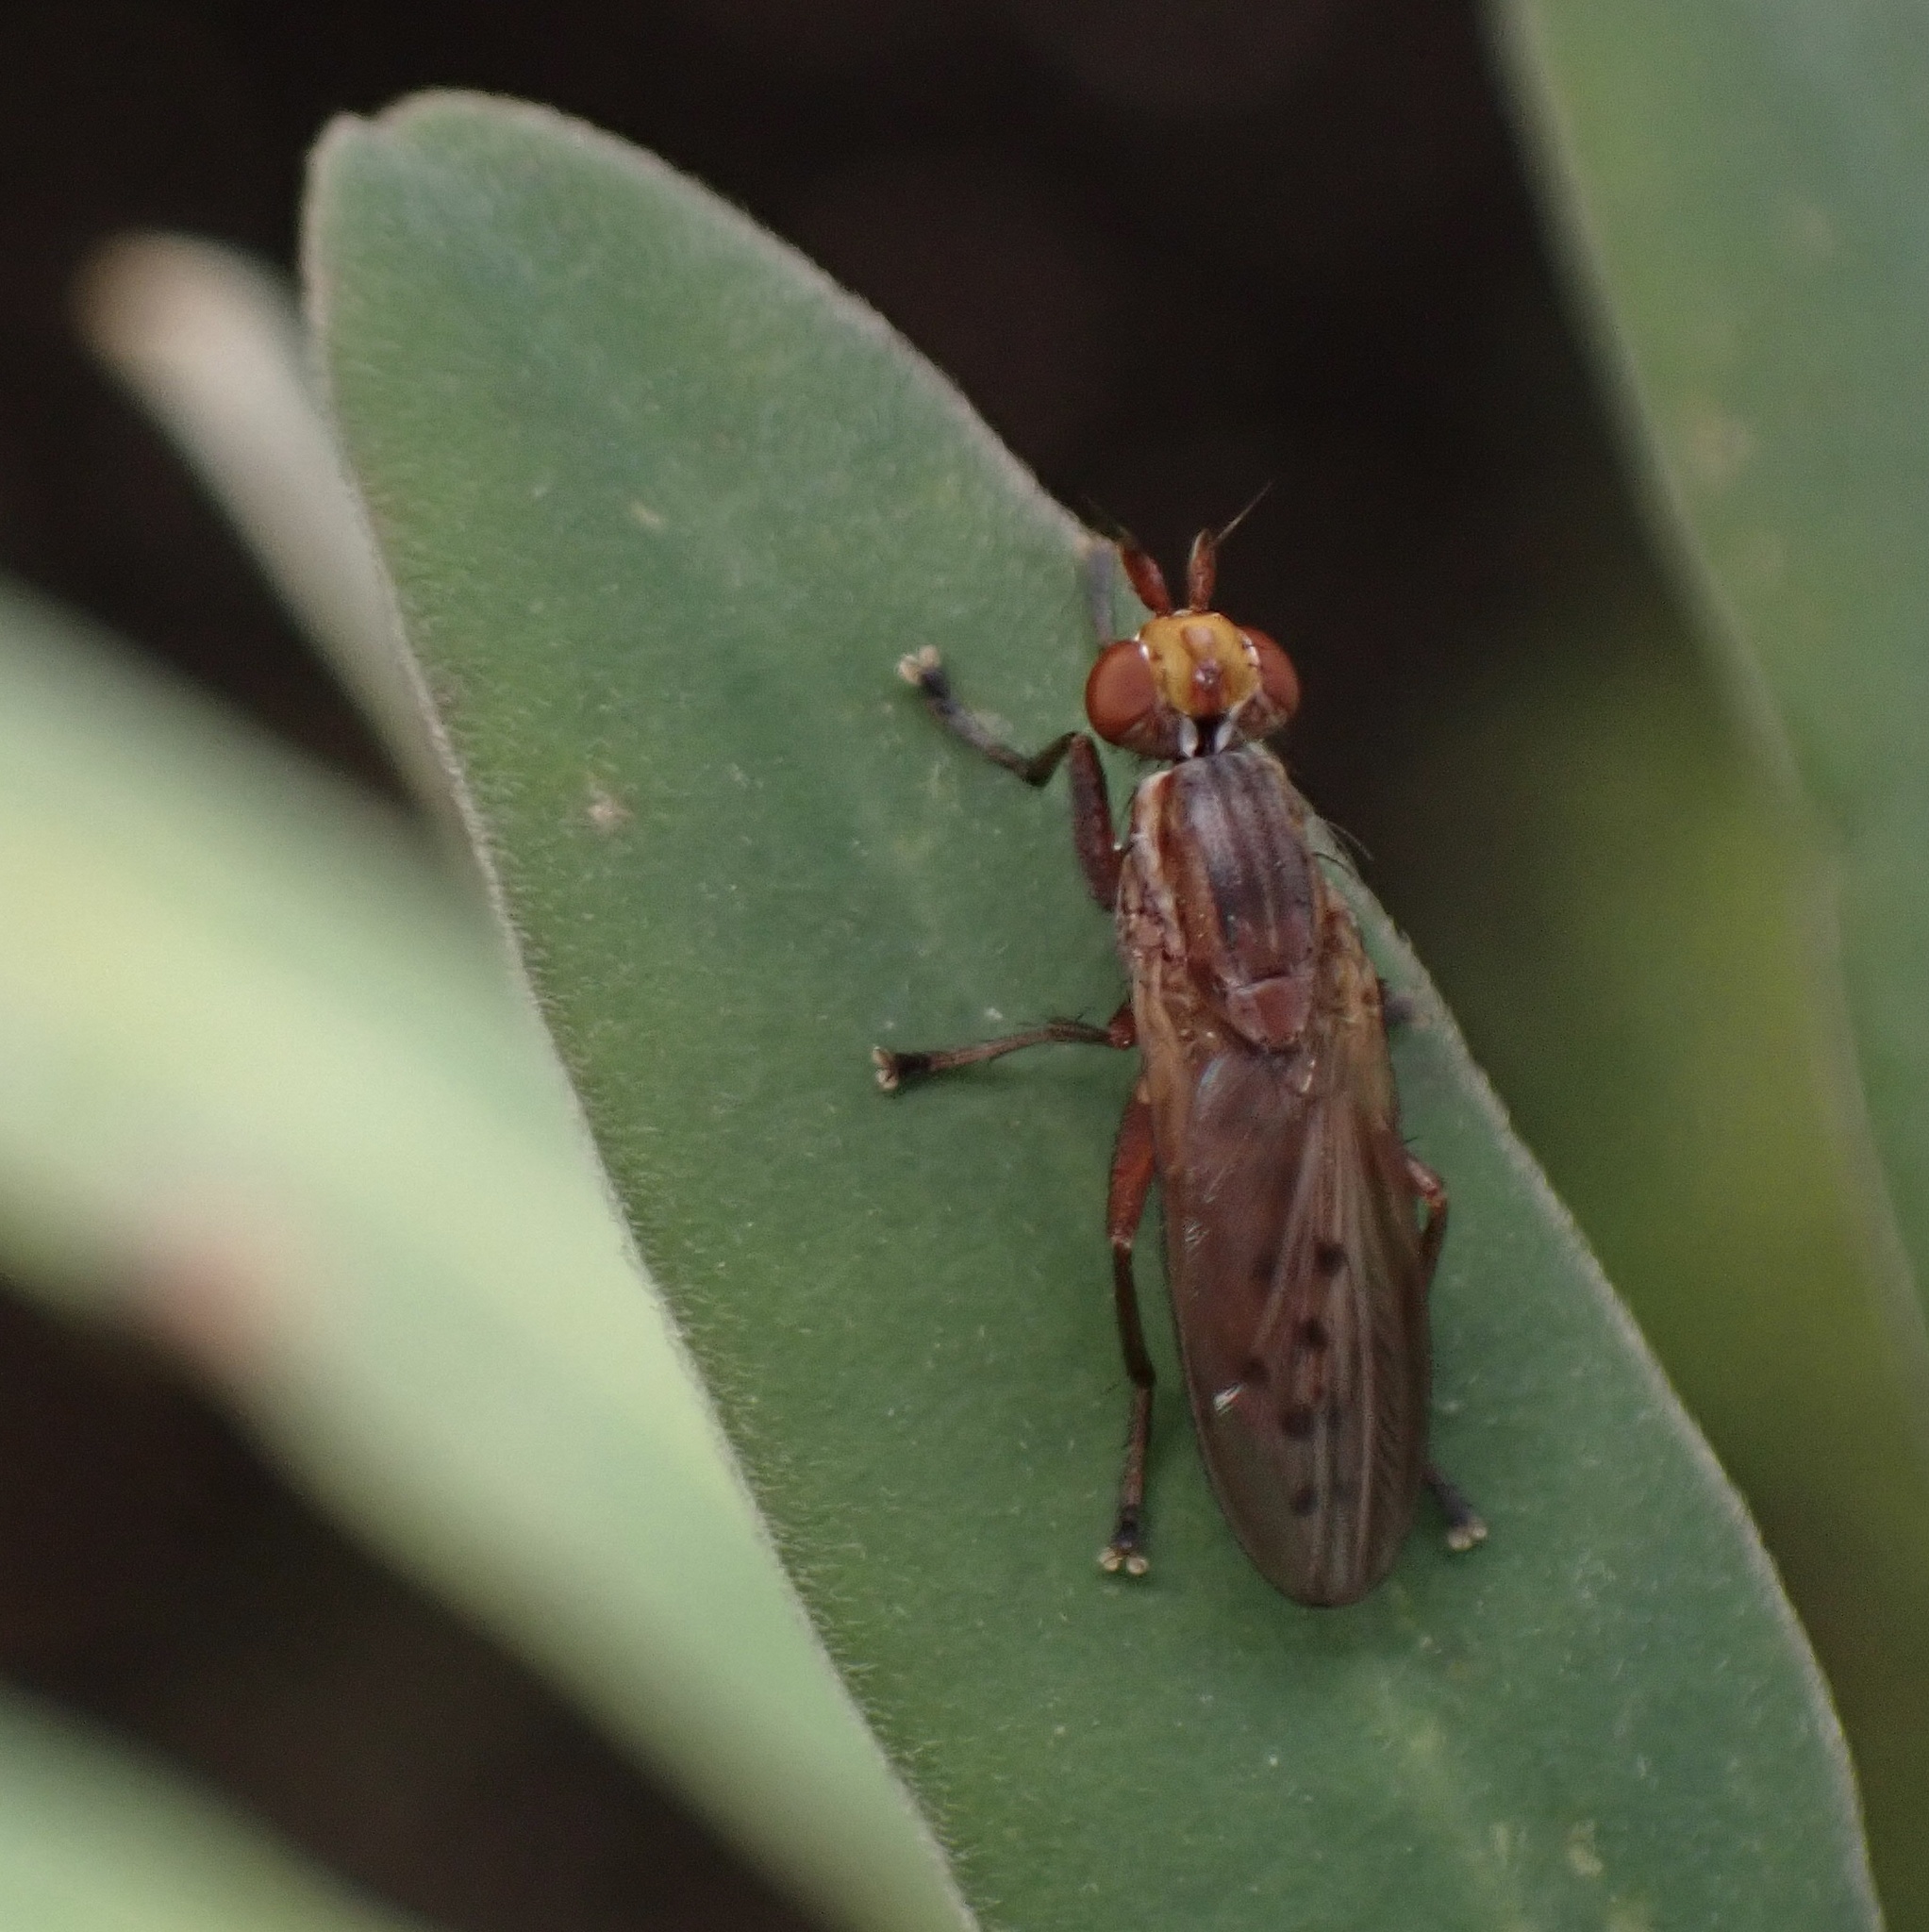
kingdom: Animalia
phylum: Arthropoda
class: Insecta
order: Diptera
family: Sciomyzidae
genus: Hydromya
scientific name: Hydromya dorsalis
